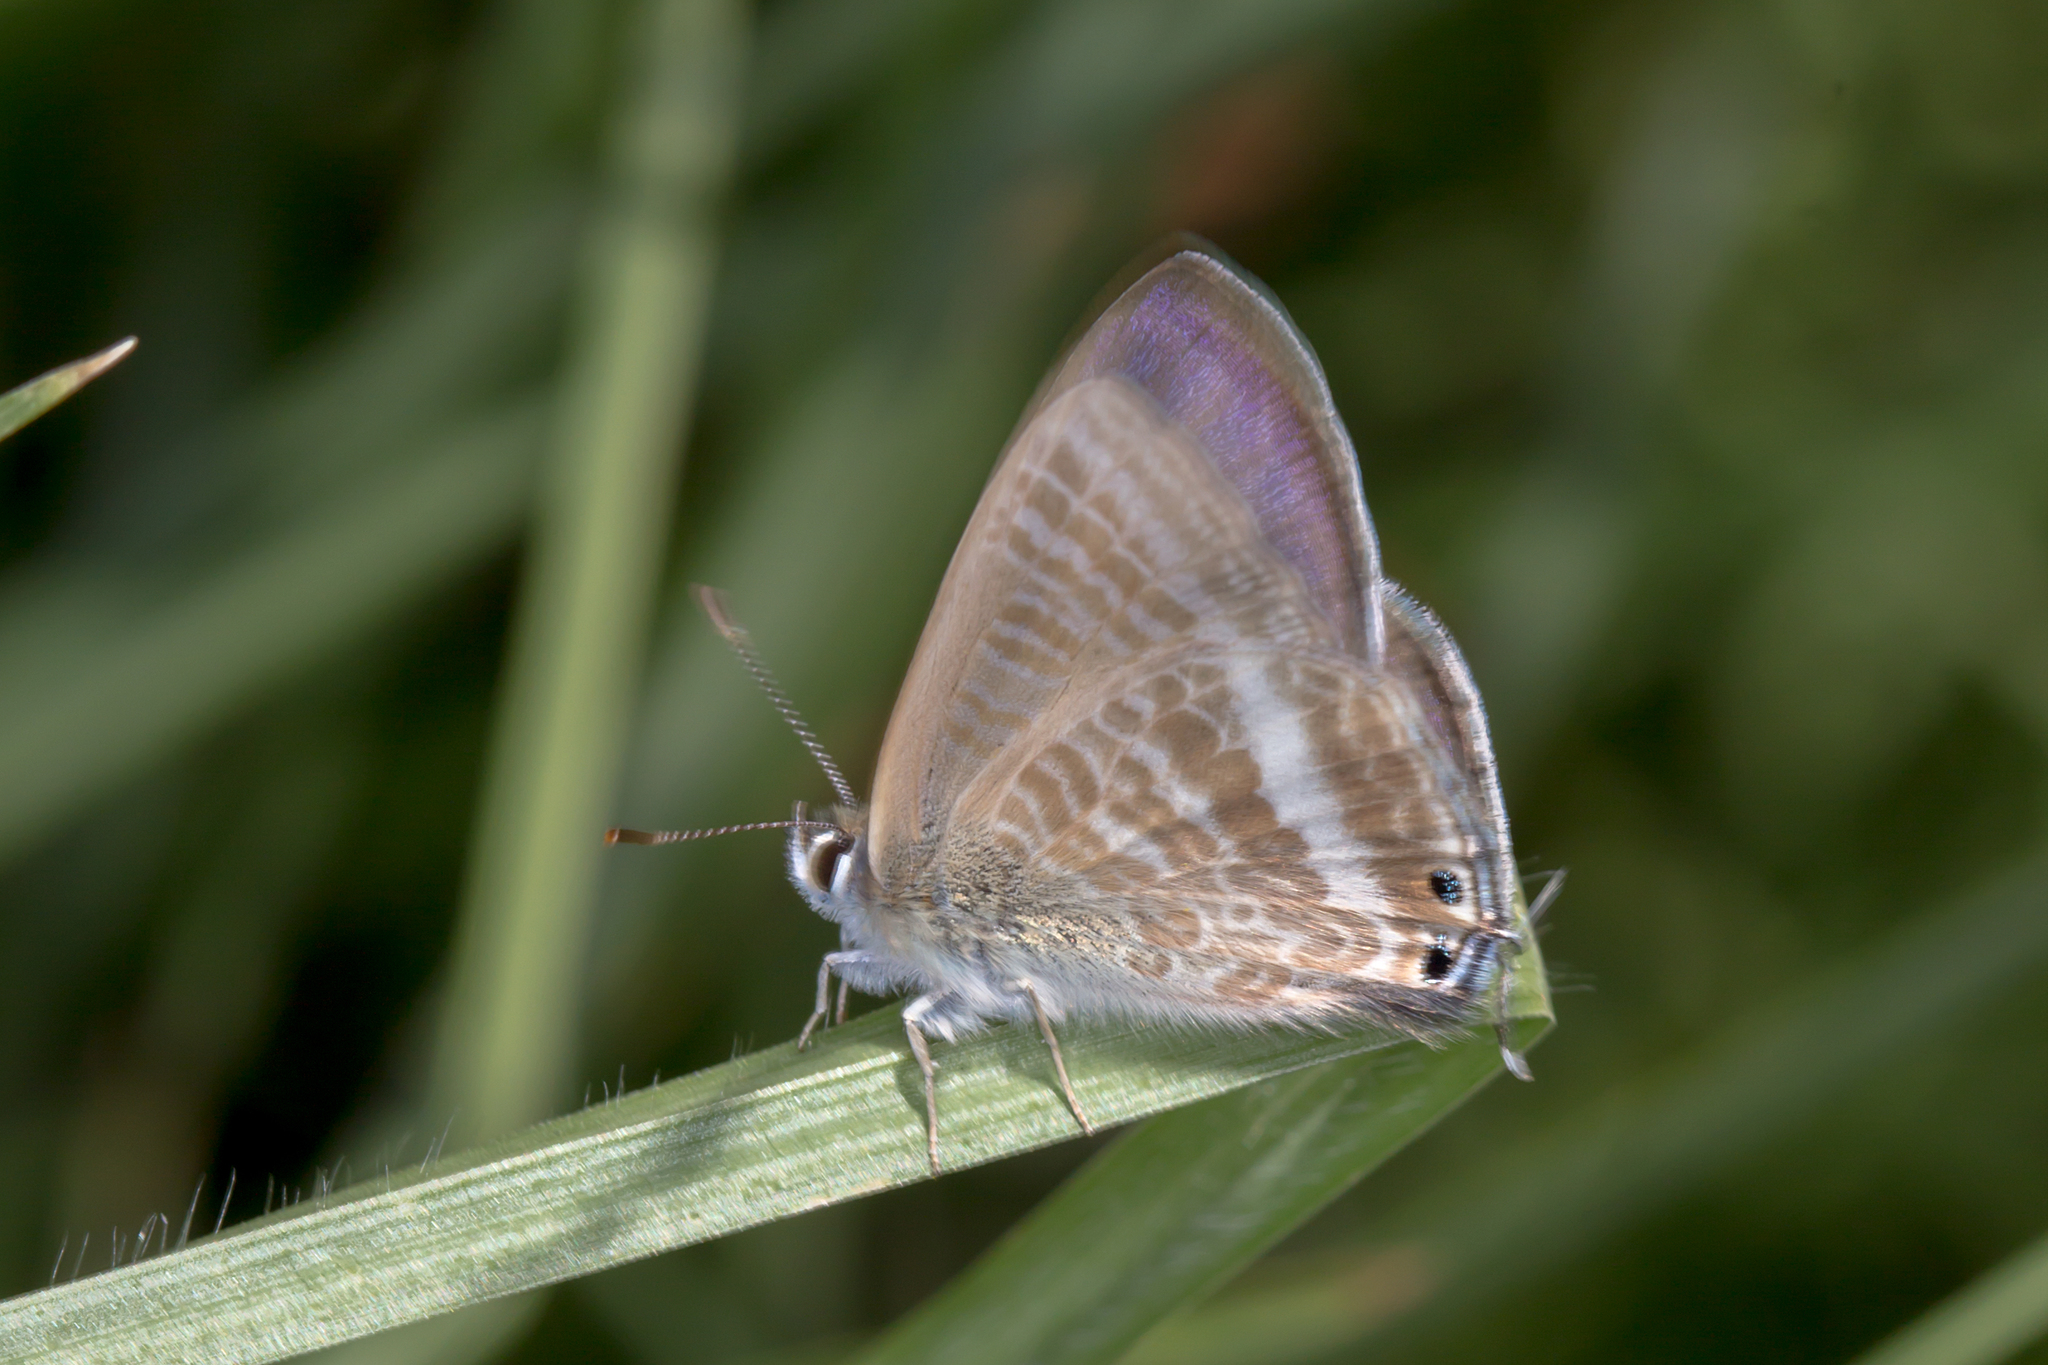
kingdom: Animalia
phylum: Arthropoda
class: Insecta
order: Lepidoptera
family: Lycaenidae
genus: Lampides
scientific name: Lampides boeticus
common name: Long-tailed blue
